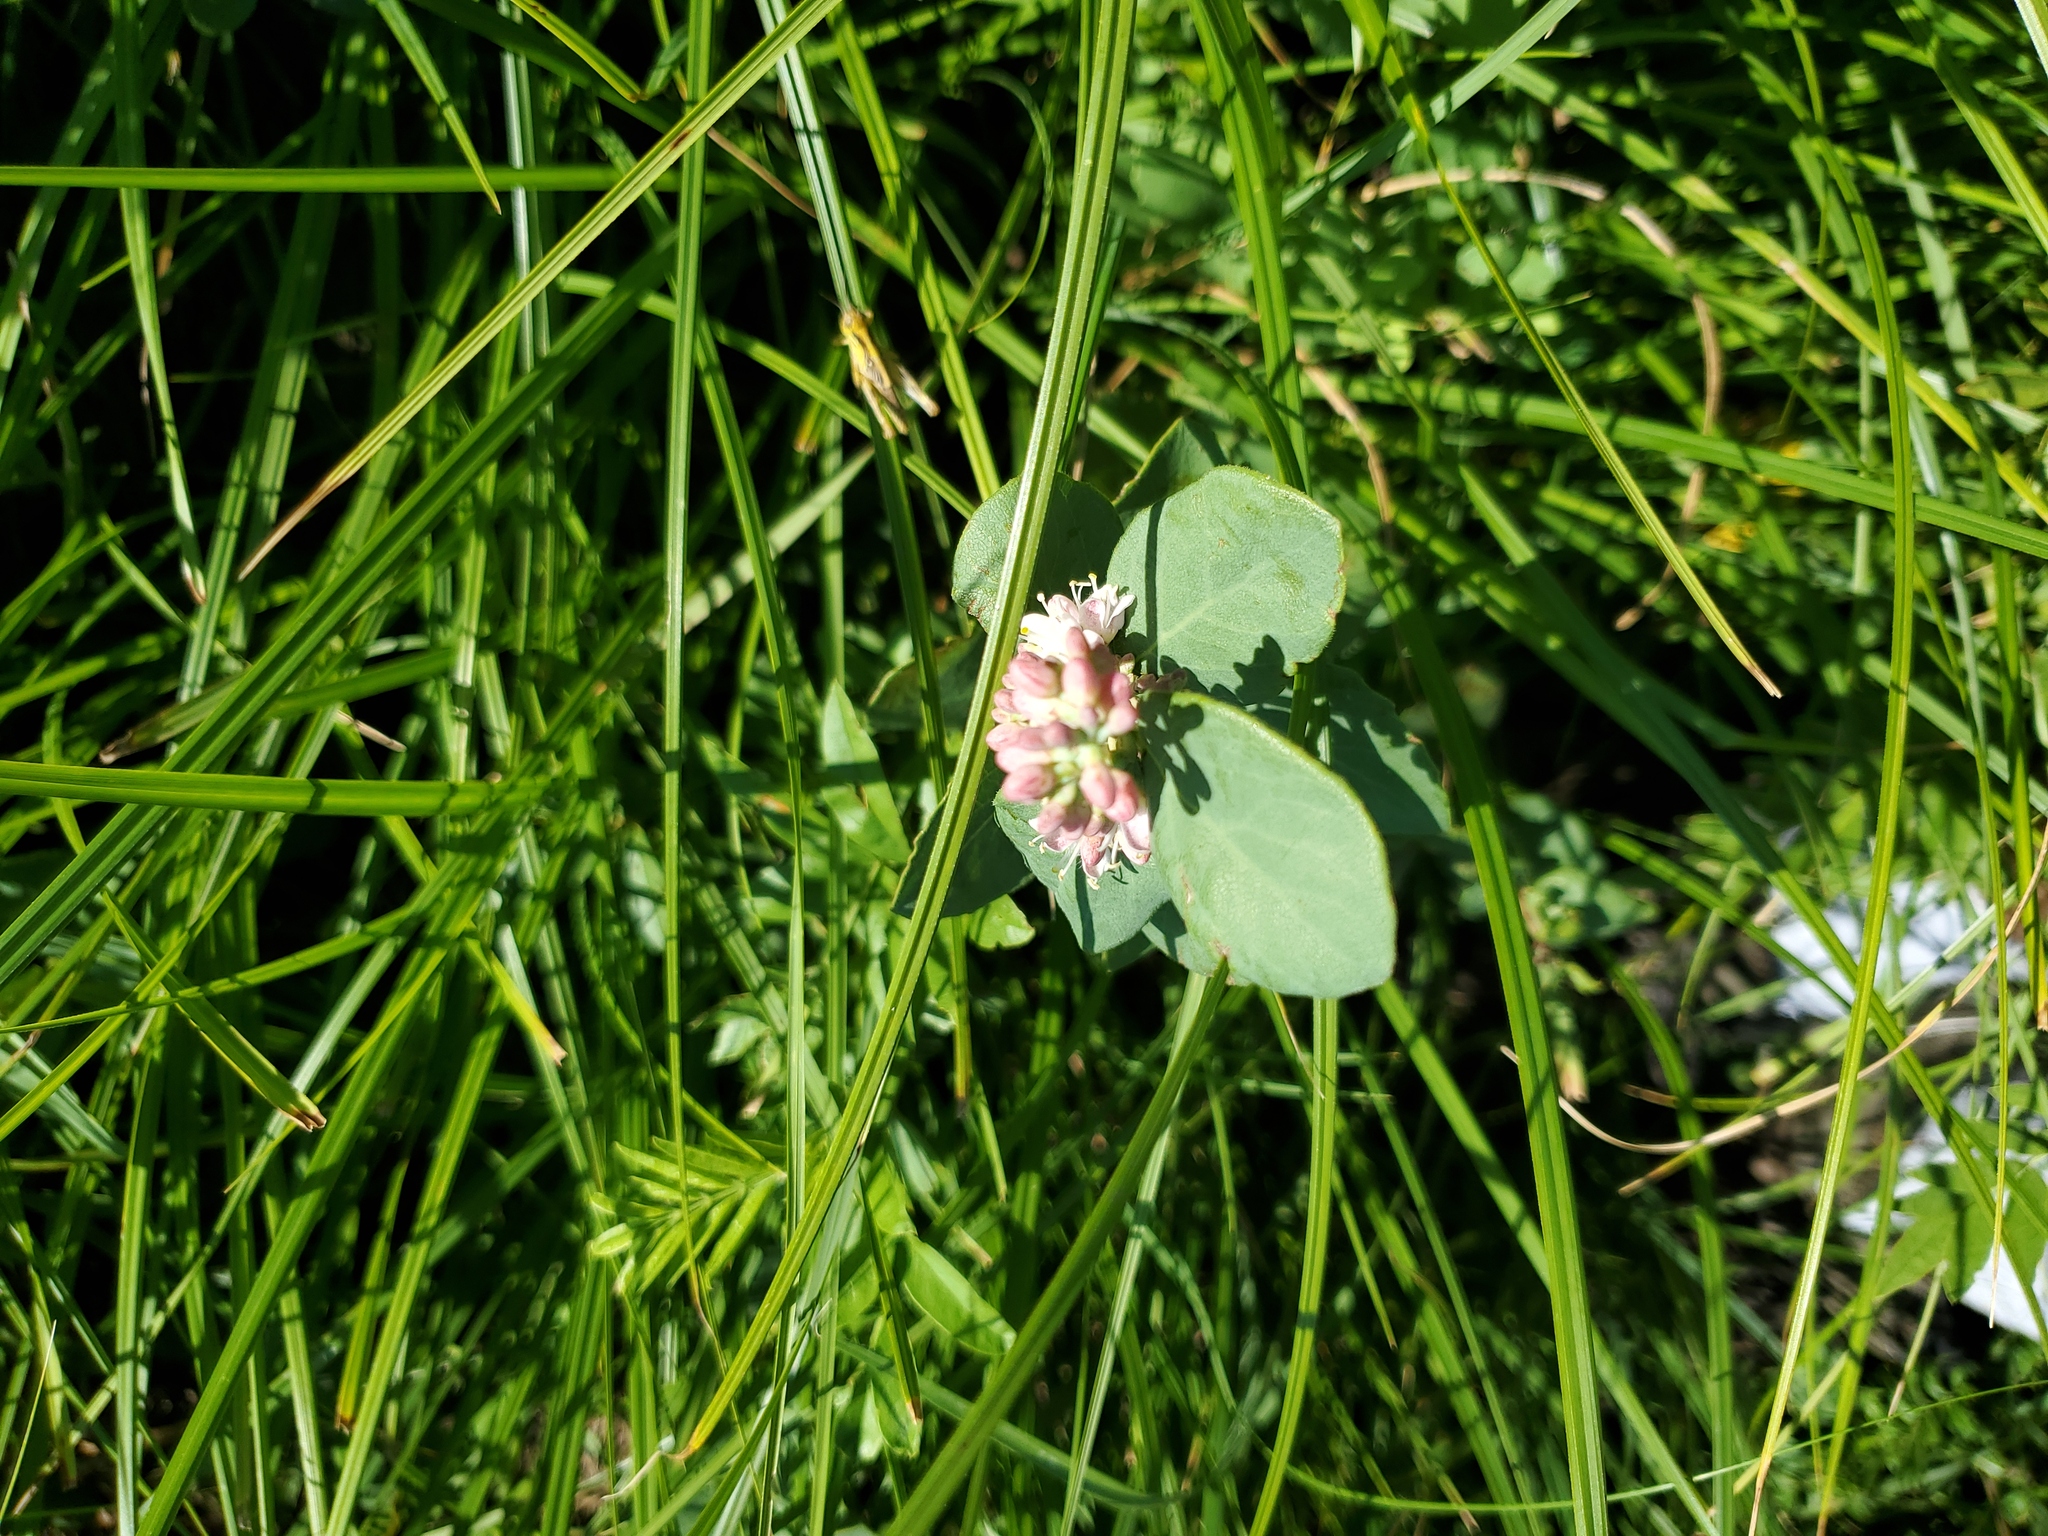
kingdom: Plantae
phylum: Tracheophyta
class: Magnoliopsida
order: Dipsacales
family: Caprifoliaceae
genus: Symphoricarpos
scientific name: Symphoricarpos occidentalis
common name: Wolfberry
